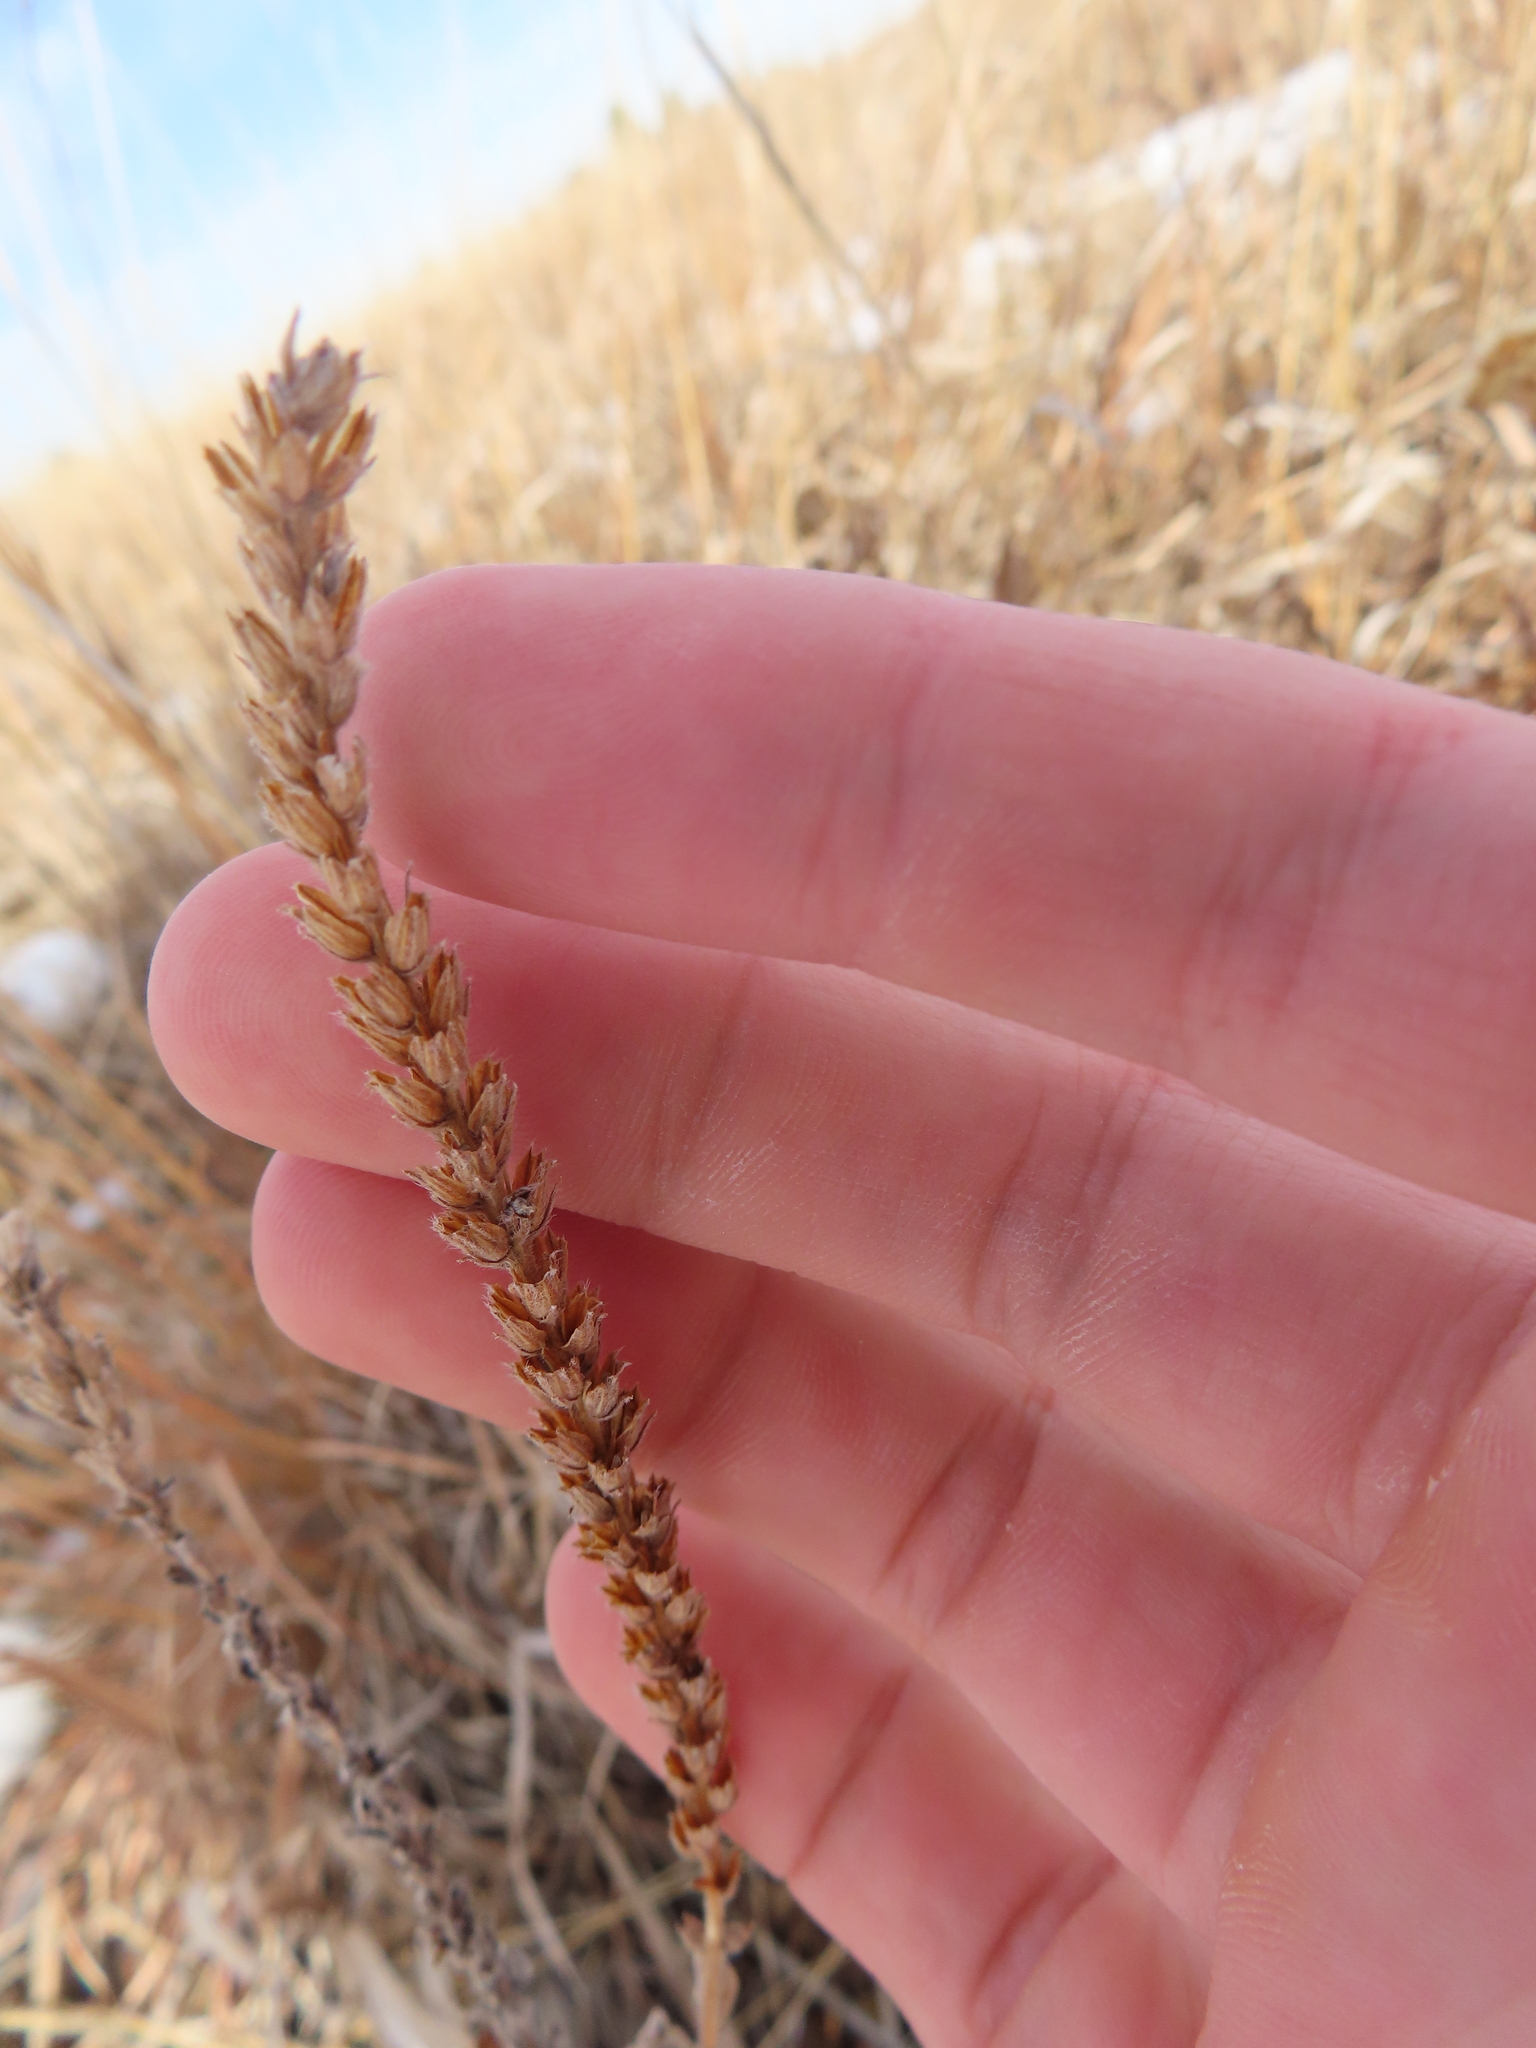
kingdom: Plantae
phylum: Tracheophyta
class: Magnoliopsida
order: Lamiales
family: Verbenaceae
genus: Verbena
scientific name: Verbena stricta
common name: Hoary vervain
